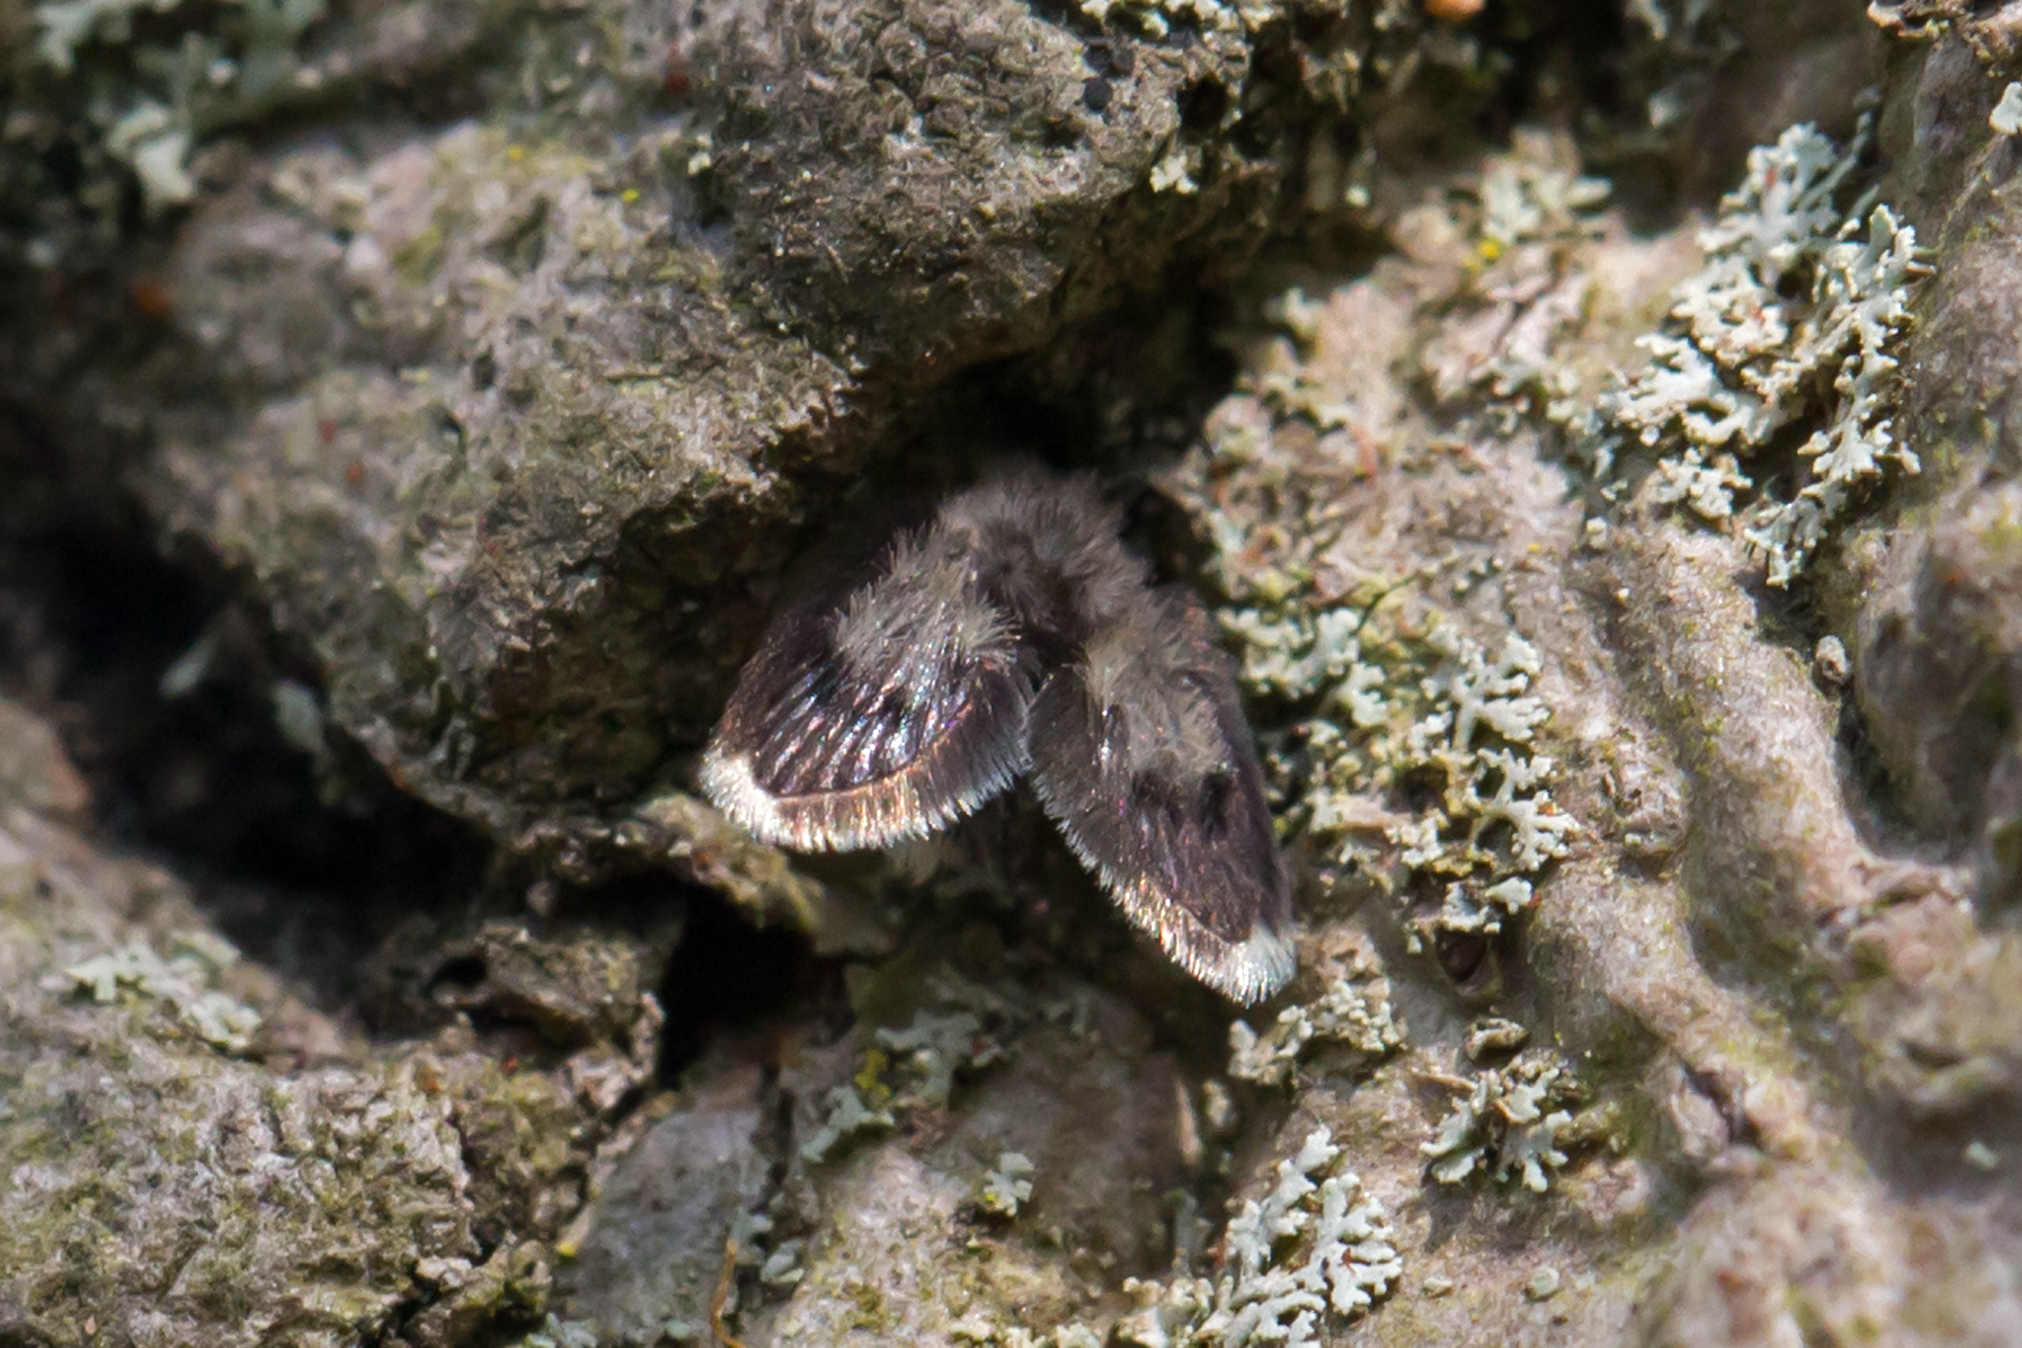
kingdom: Animalia
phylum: Arthropoda
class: Insecta
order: Diptera
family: Psychodidae
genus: Lepiseodina
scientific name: Lepiseodina
